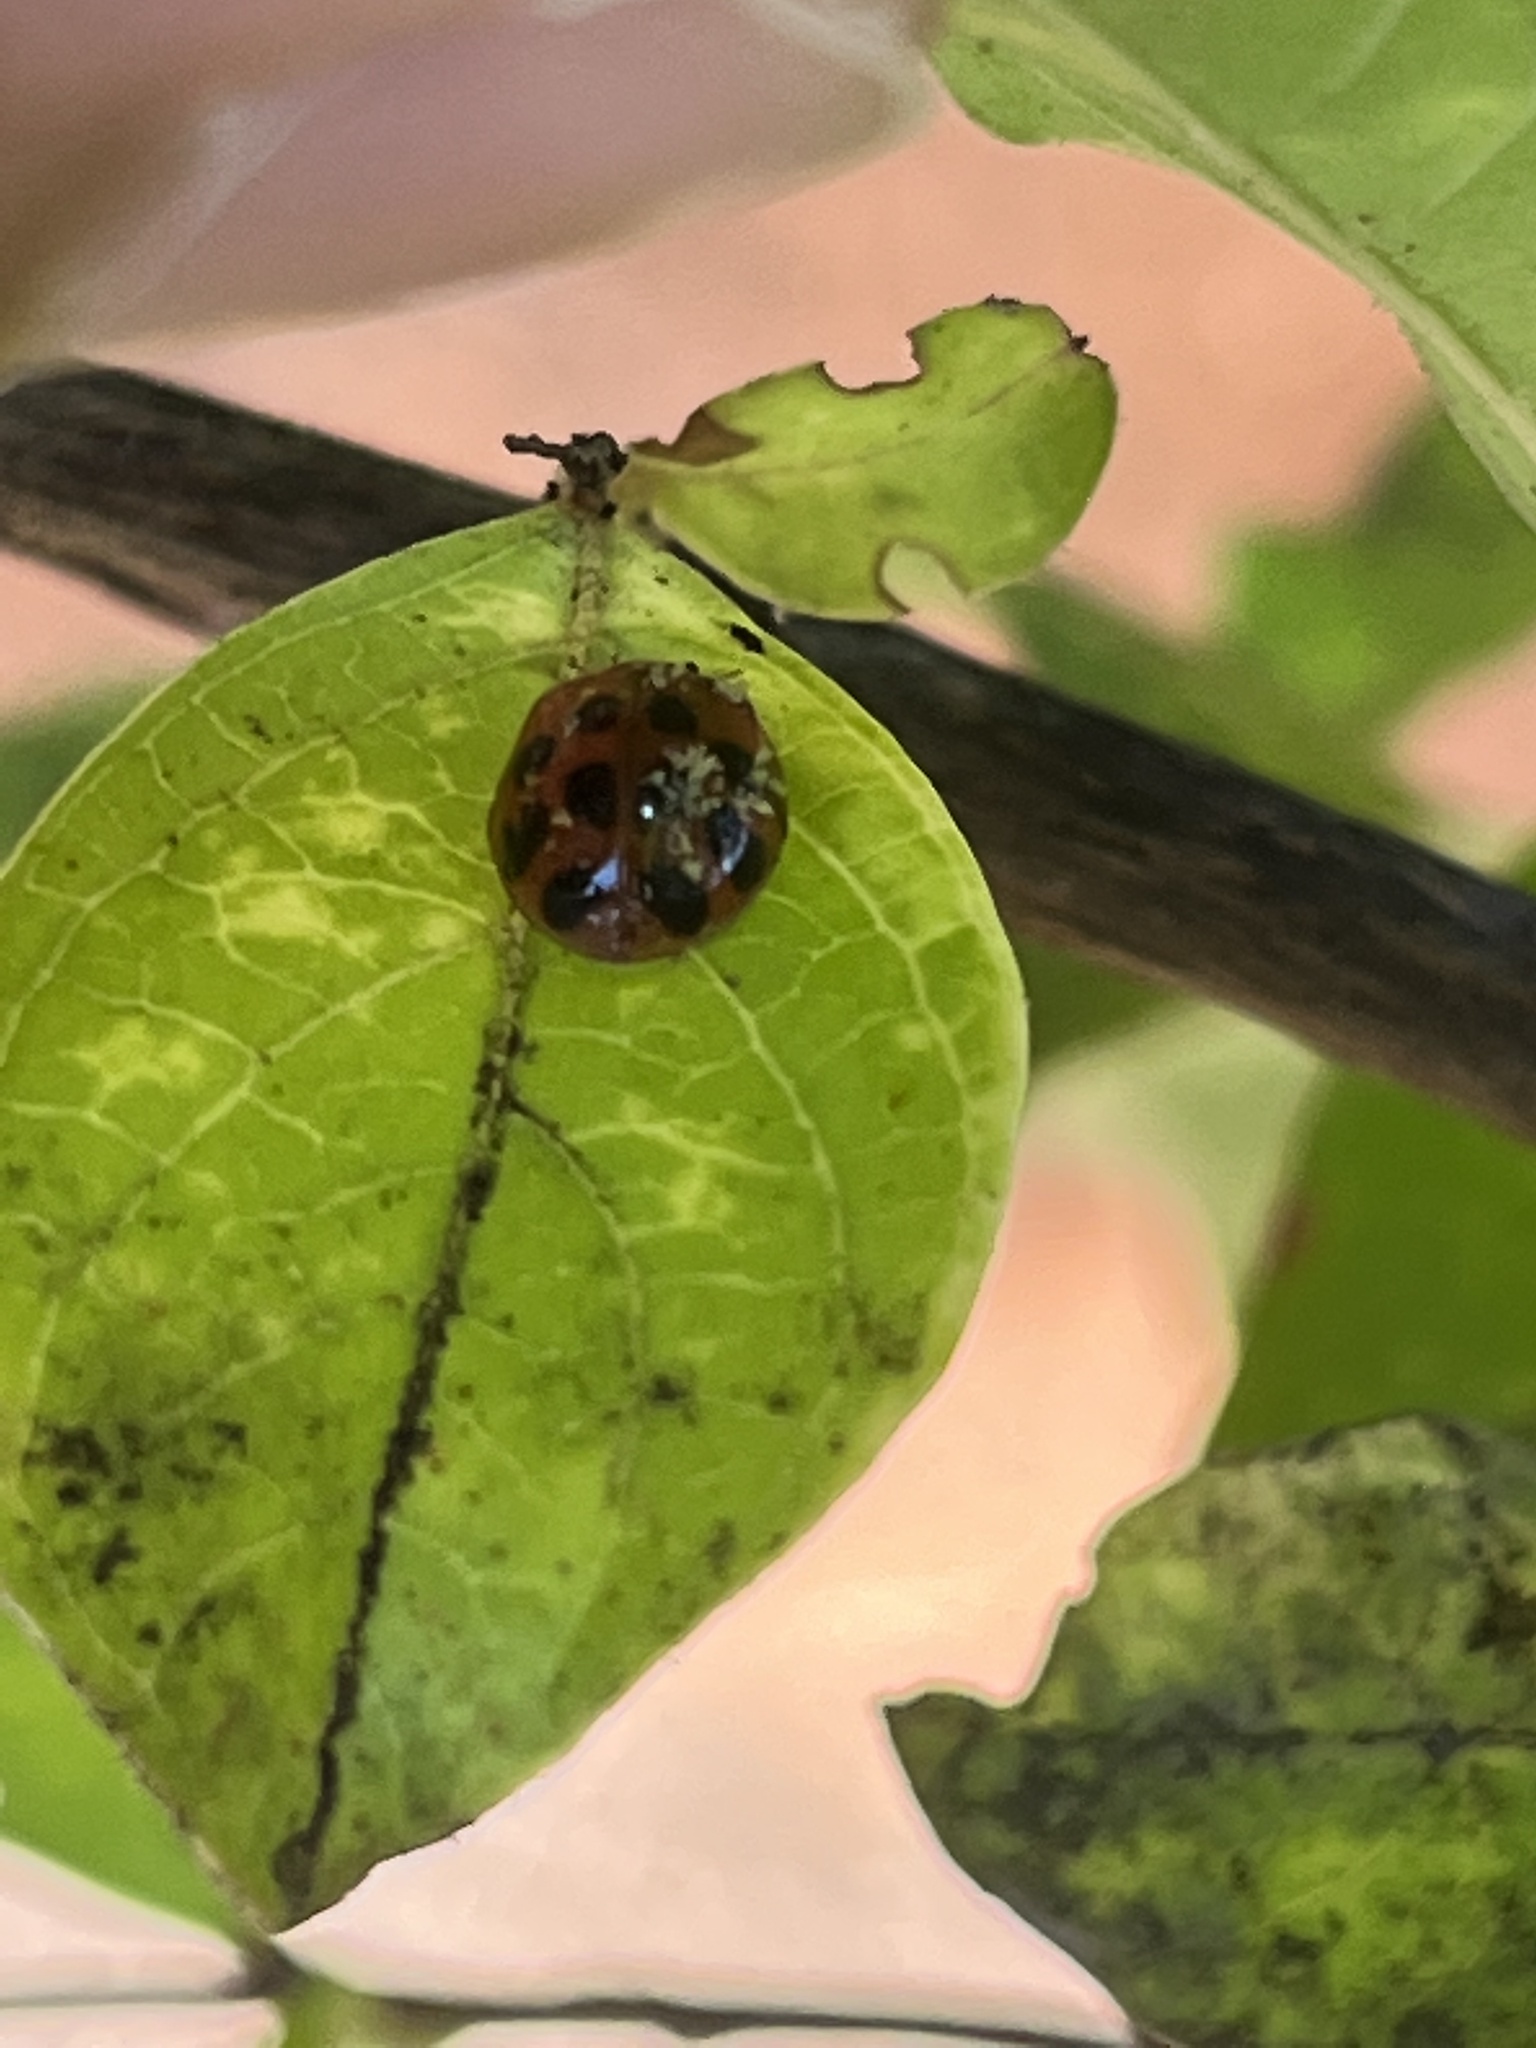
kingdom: Fungi
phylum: Ascomycota
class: Laboulbeniomycetes
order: Laboulbeniales
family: Laboulbeniaceae
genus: Hesperomyces
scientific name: Hesperomyces harmoniae
